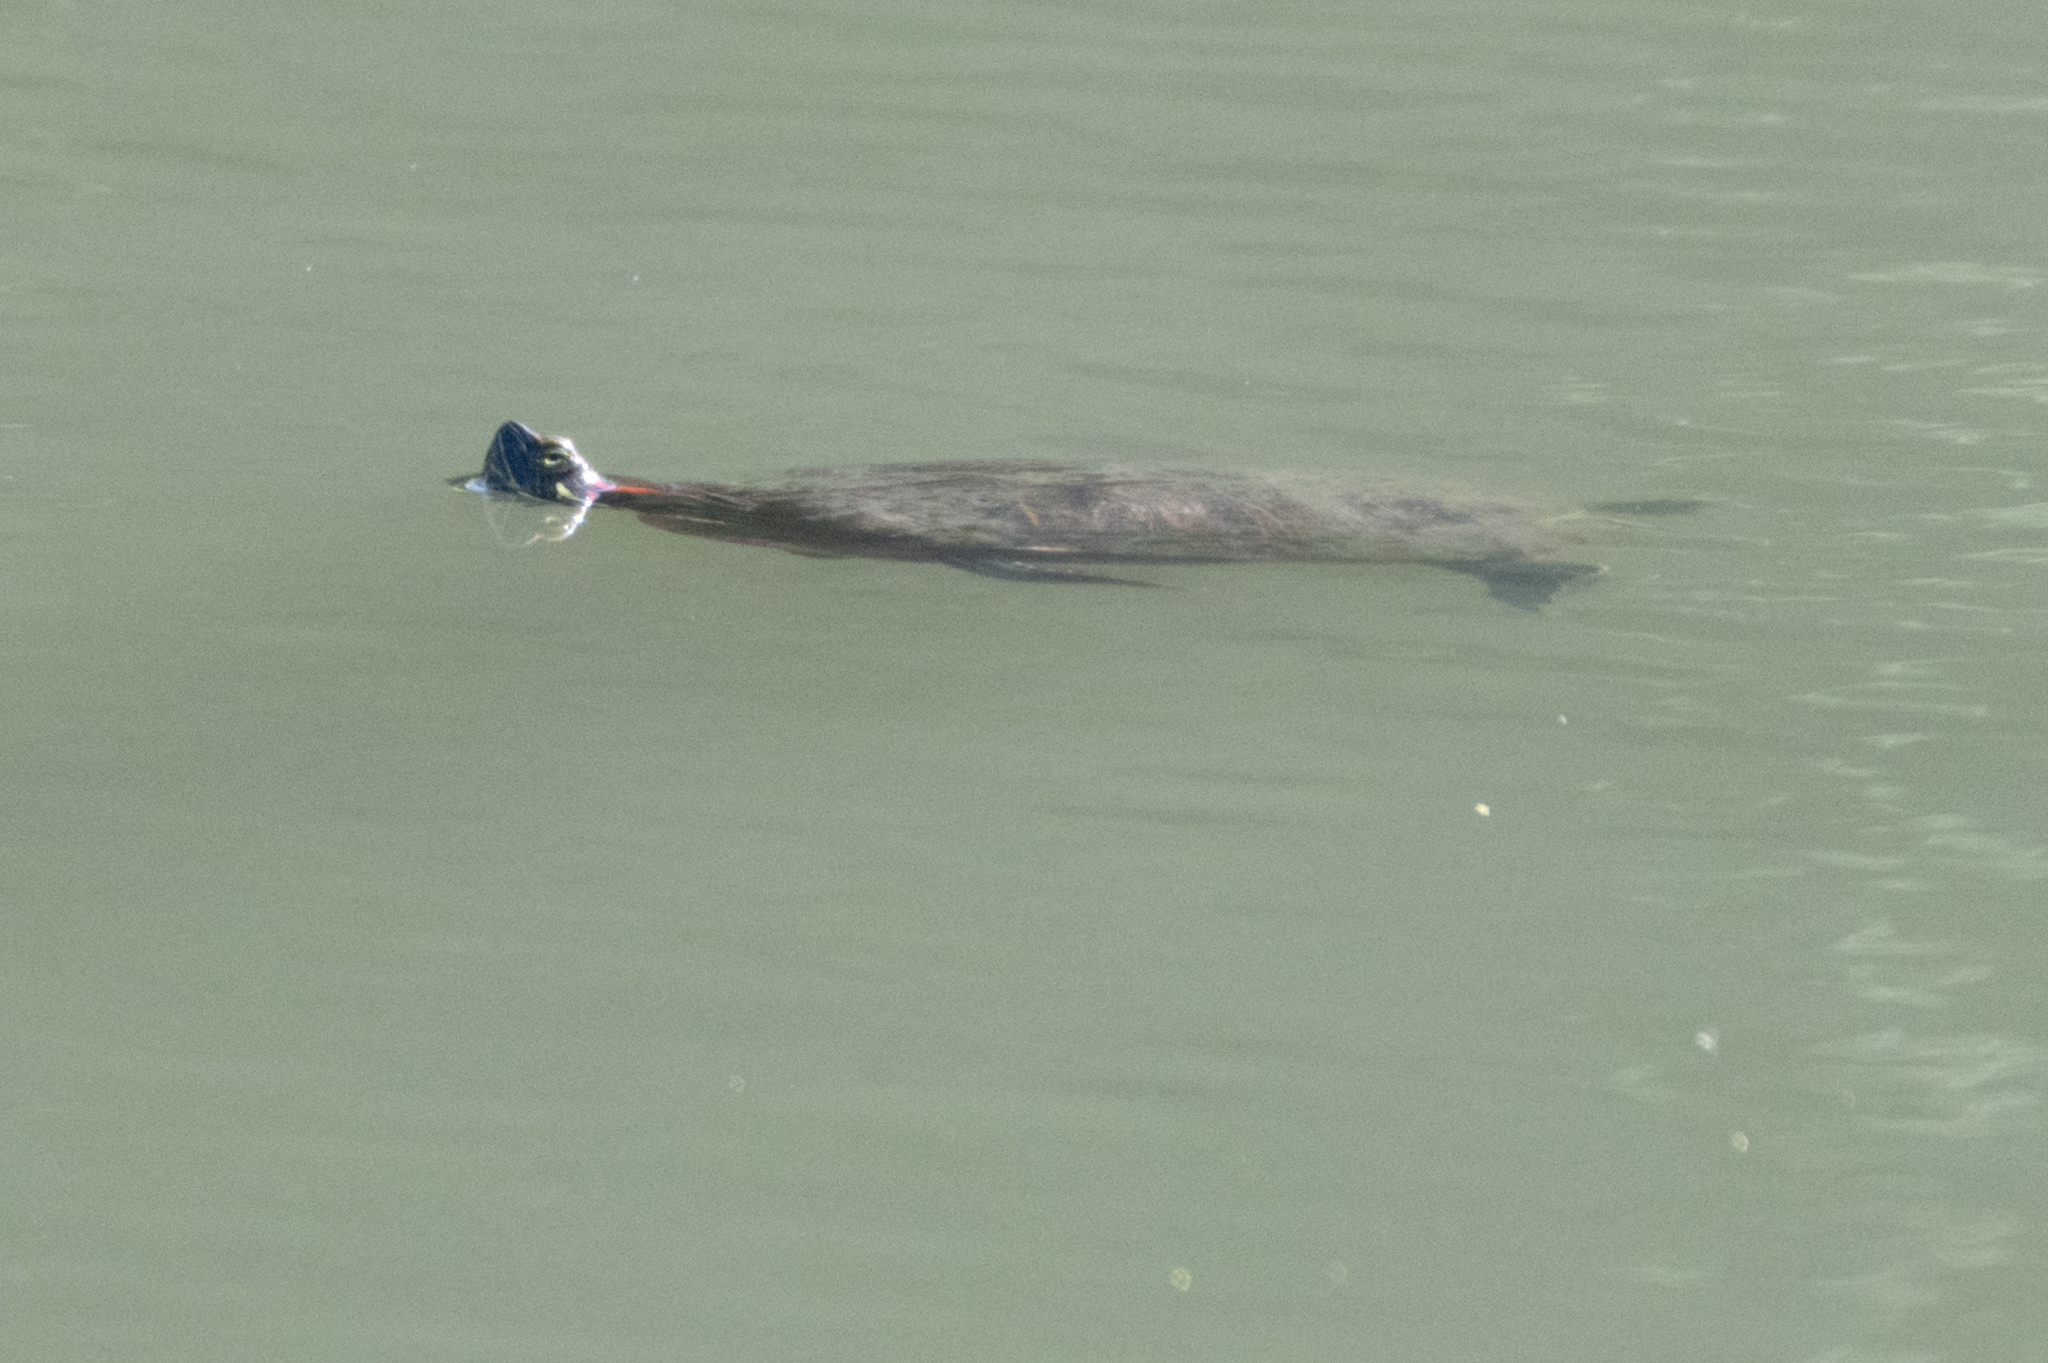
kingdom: Animalia
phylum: Chordata
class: Testudines
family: Emydidae
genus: Trachemys
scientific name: Trachemys scripta
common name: Slider
